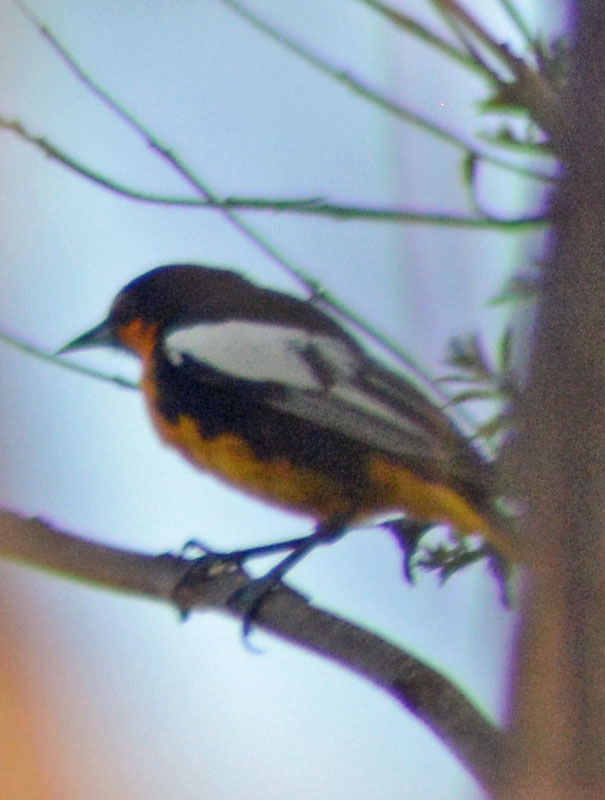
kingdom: Animalia
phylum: Chordata
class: Aves
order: Passeriformes
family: Icteridae
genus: Icterus
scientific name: Icterus abeillei
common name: Black-backed oriole
